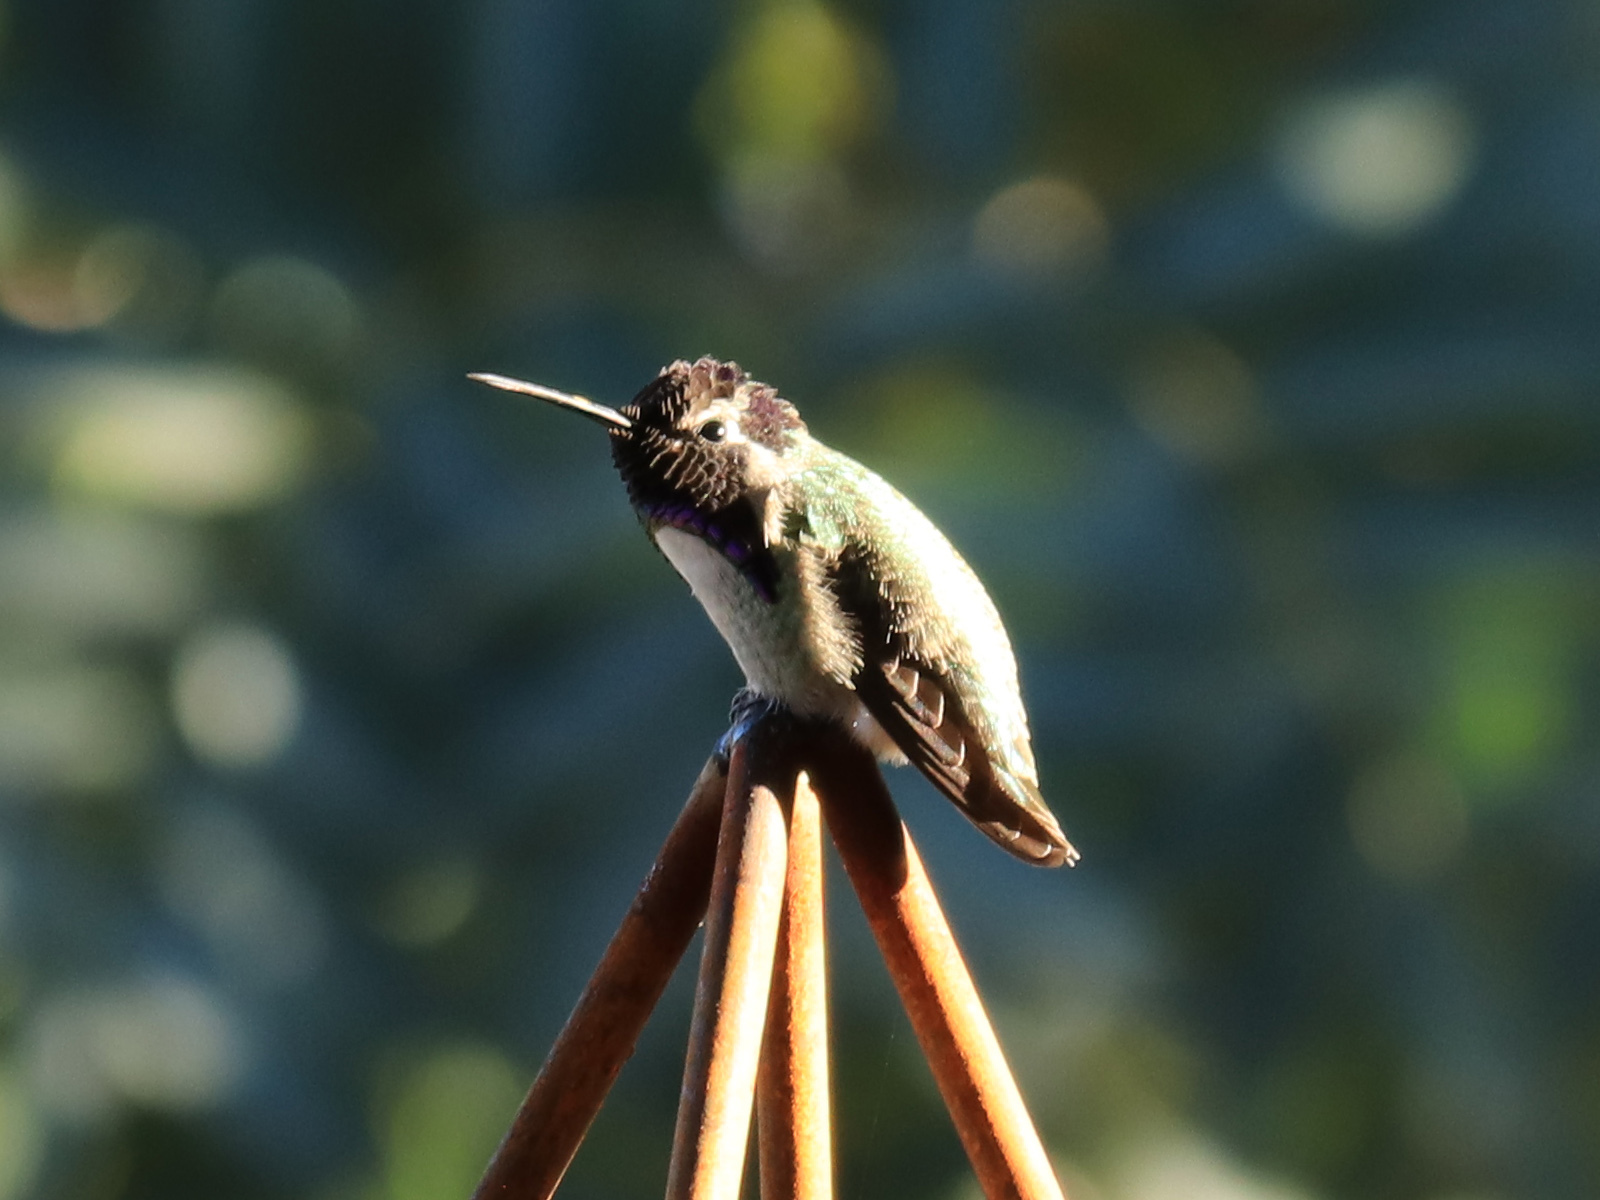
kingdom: Animalia
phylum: Chordata
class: Aves
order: Apodiformes
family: Trochilidae
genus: Calypte
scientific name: Calypte costae
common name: Costa's hummingbird
